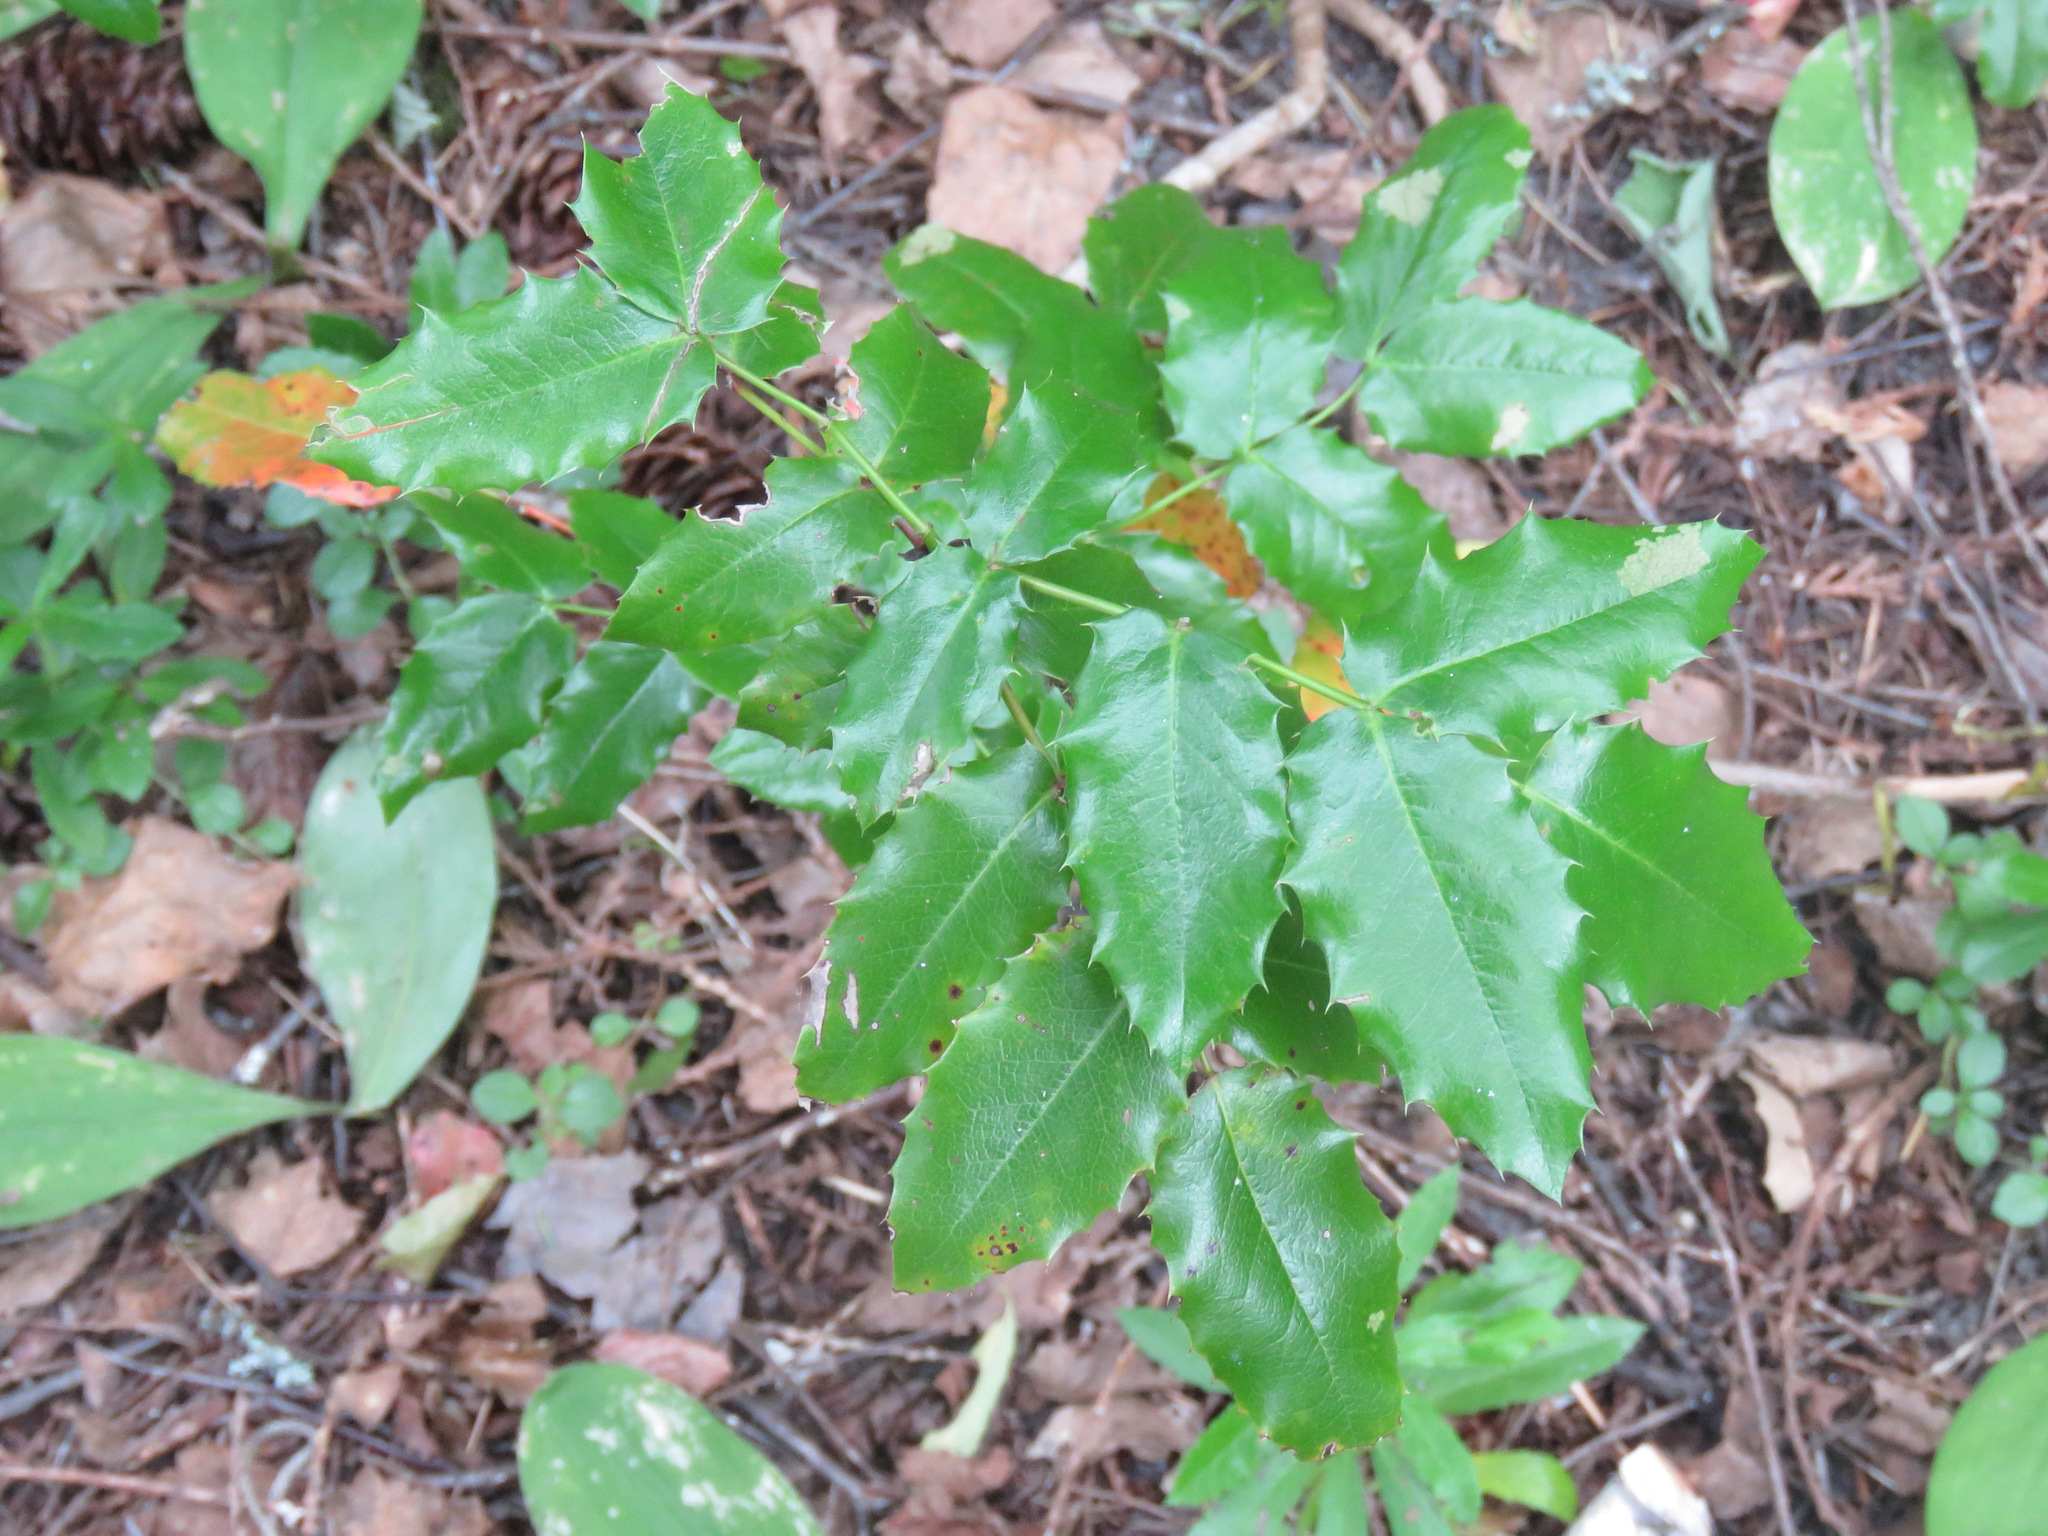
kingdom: Plantae
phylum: Tracheophyta
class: Magnoliopsida
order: Ranunculales
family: Berberidaceae
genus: Mahonia
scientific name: Mahonia aquifolium
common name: Oregon-grape
